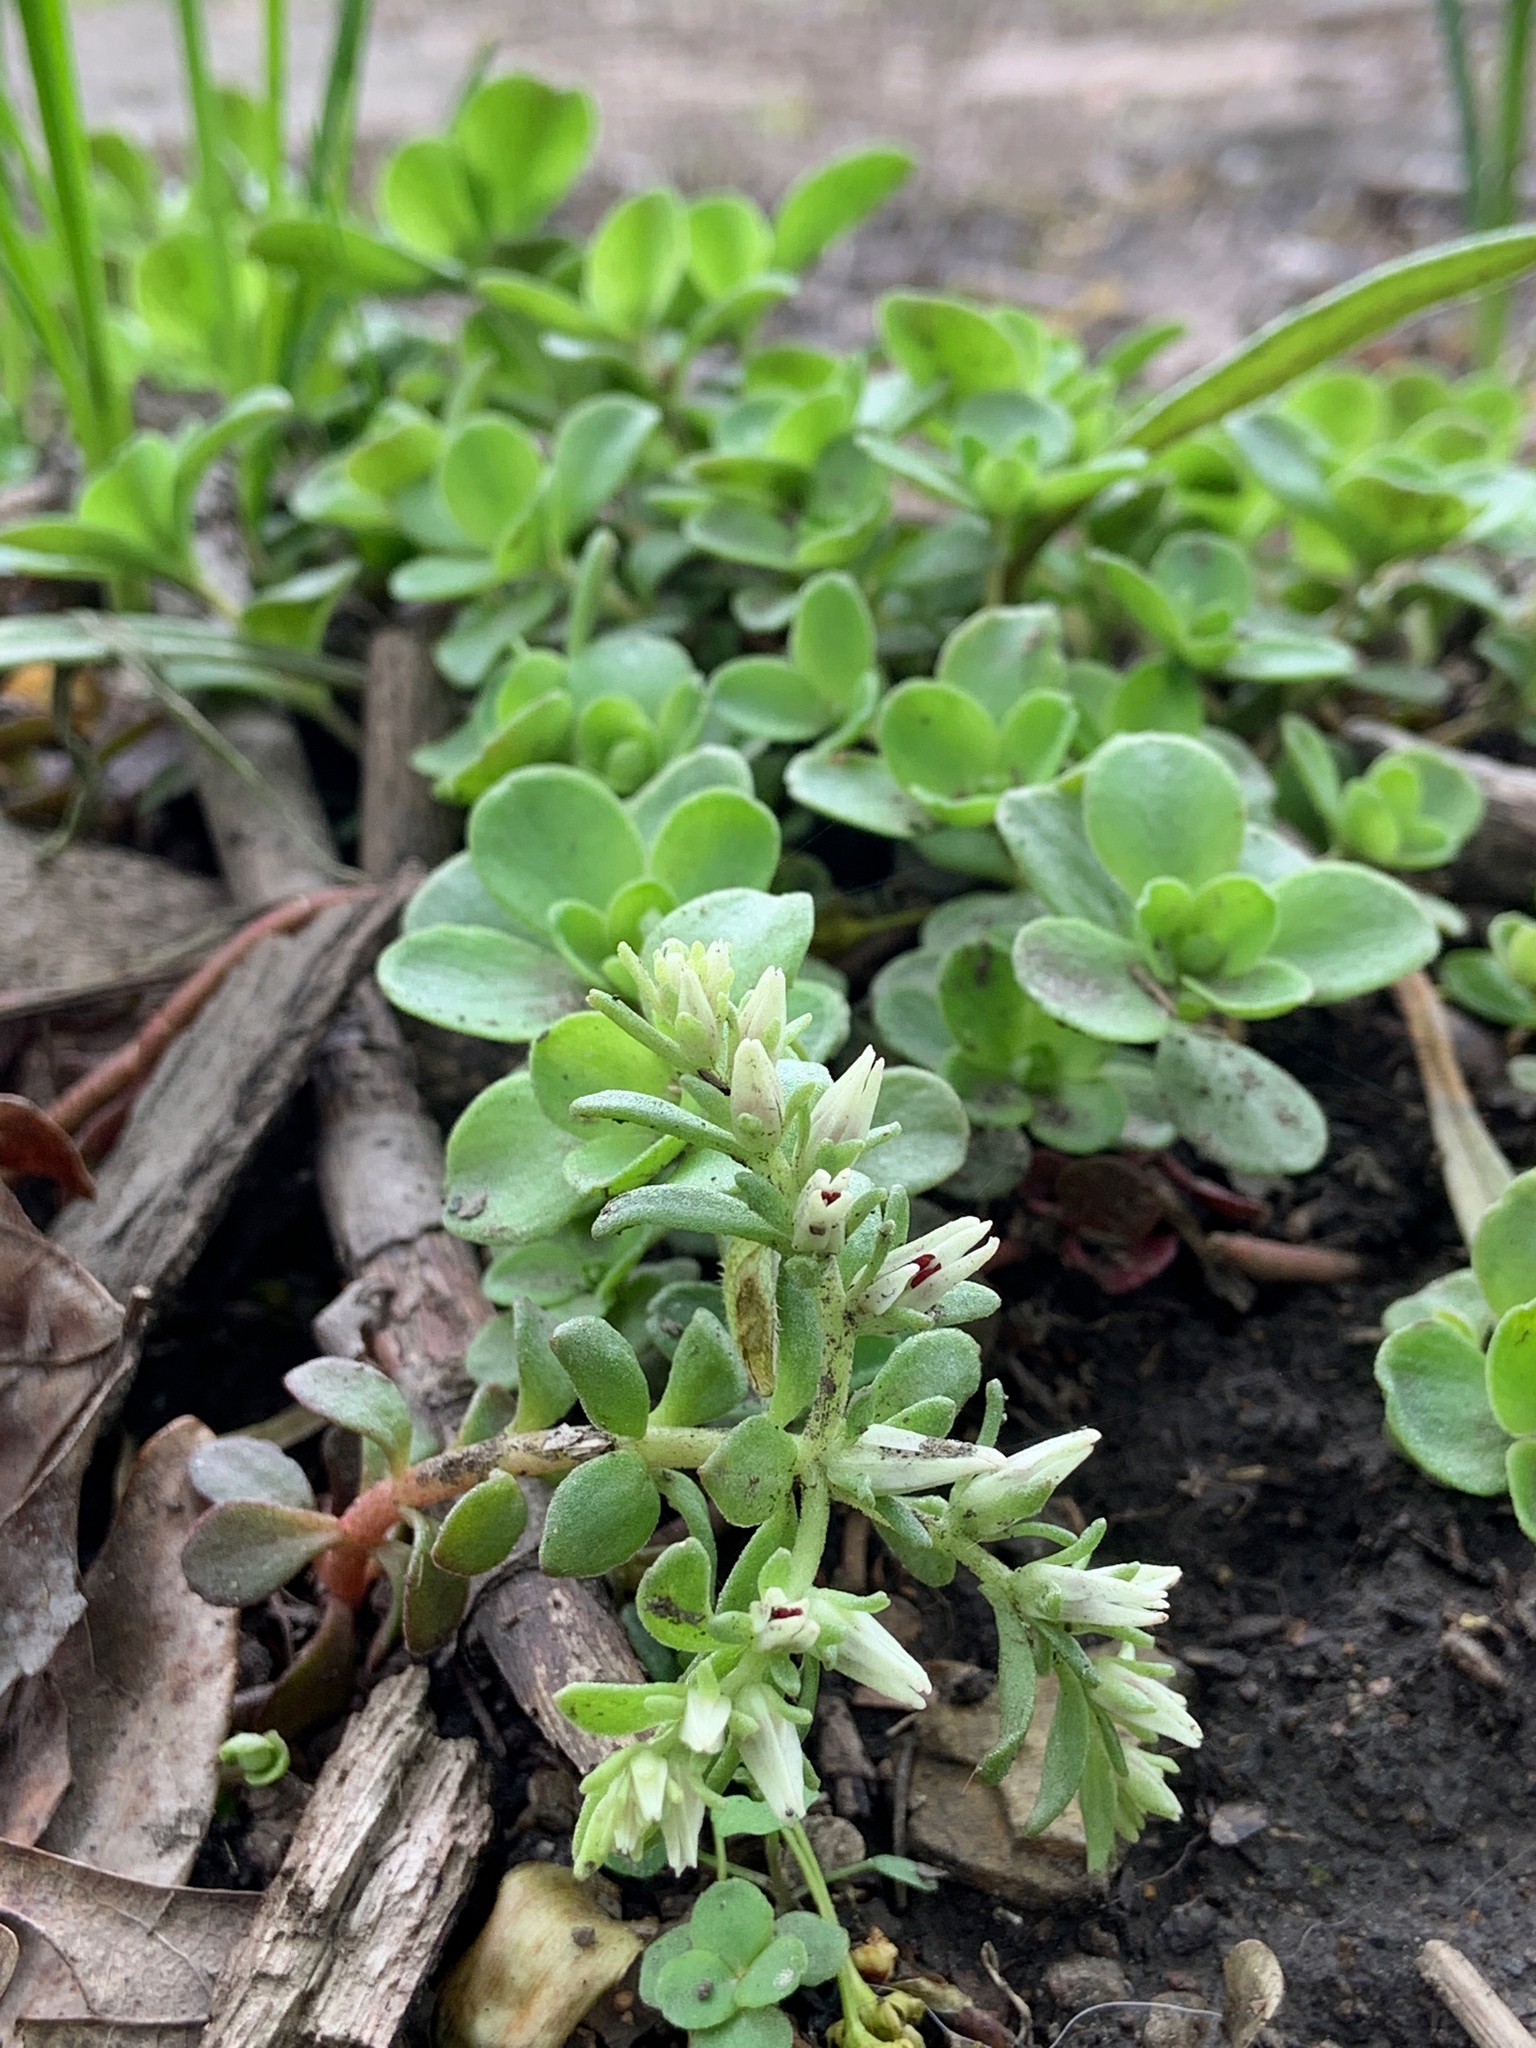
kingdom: Plantae
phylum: Tracheophyta
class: Magnoliopsida
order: Saxifragales
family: Crassulaceae
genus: Sedum
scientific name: Sedum ternatum
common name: Wild stonecrop
